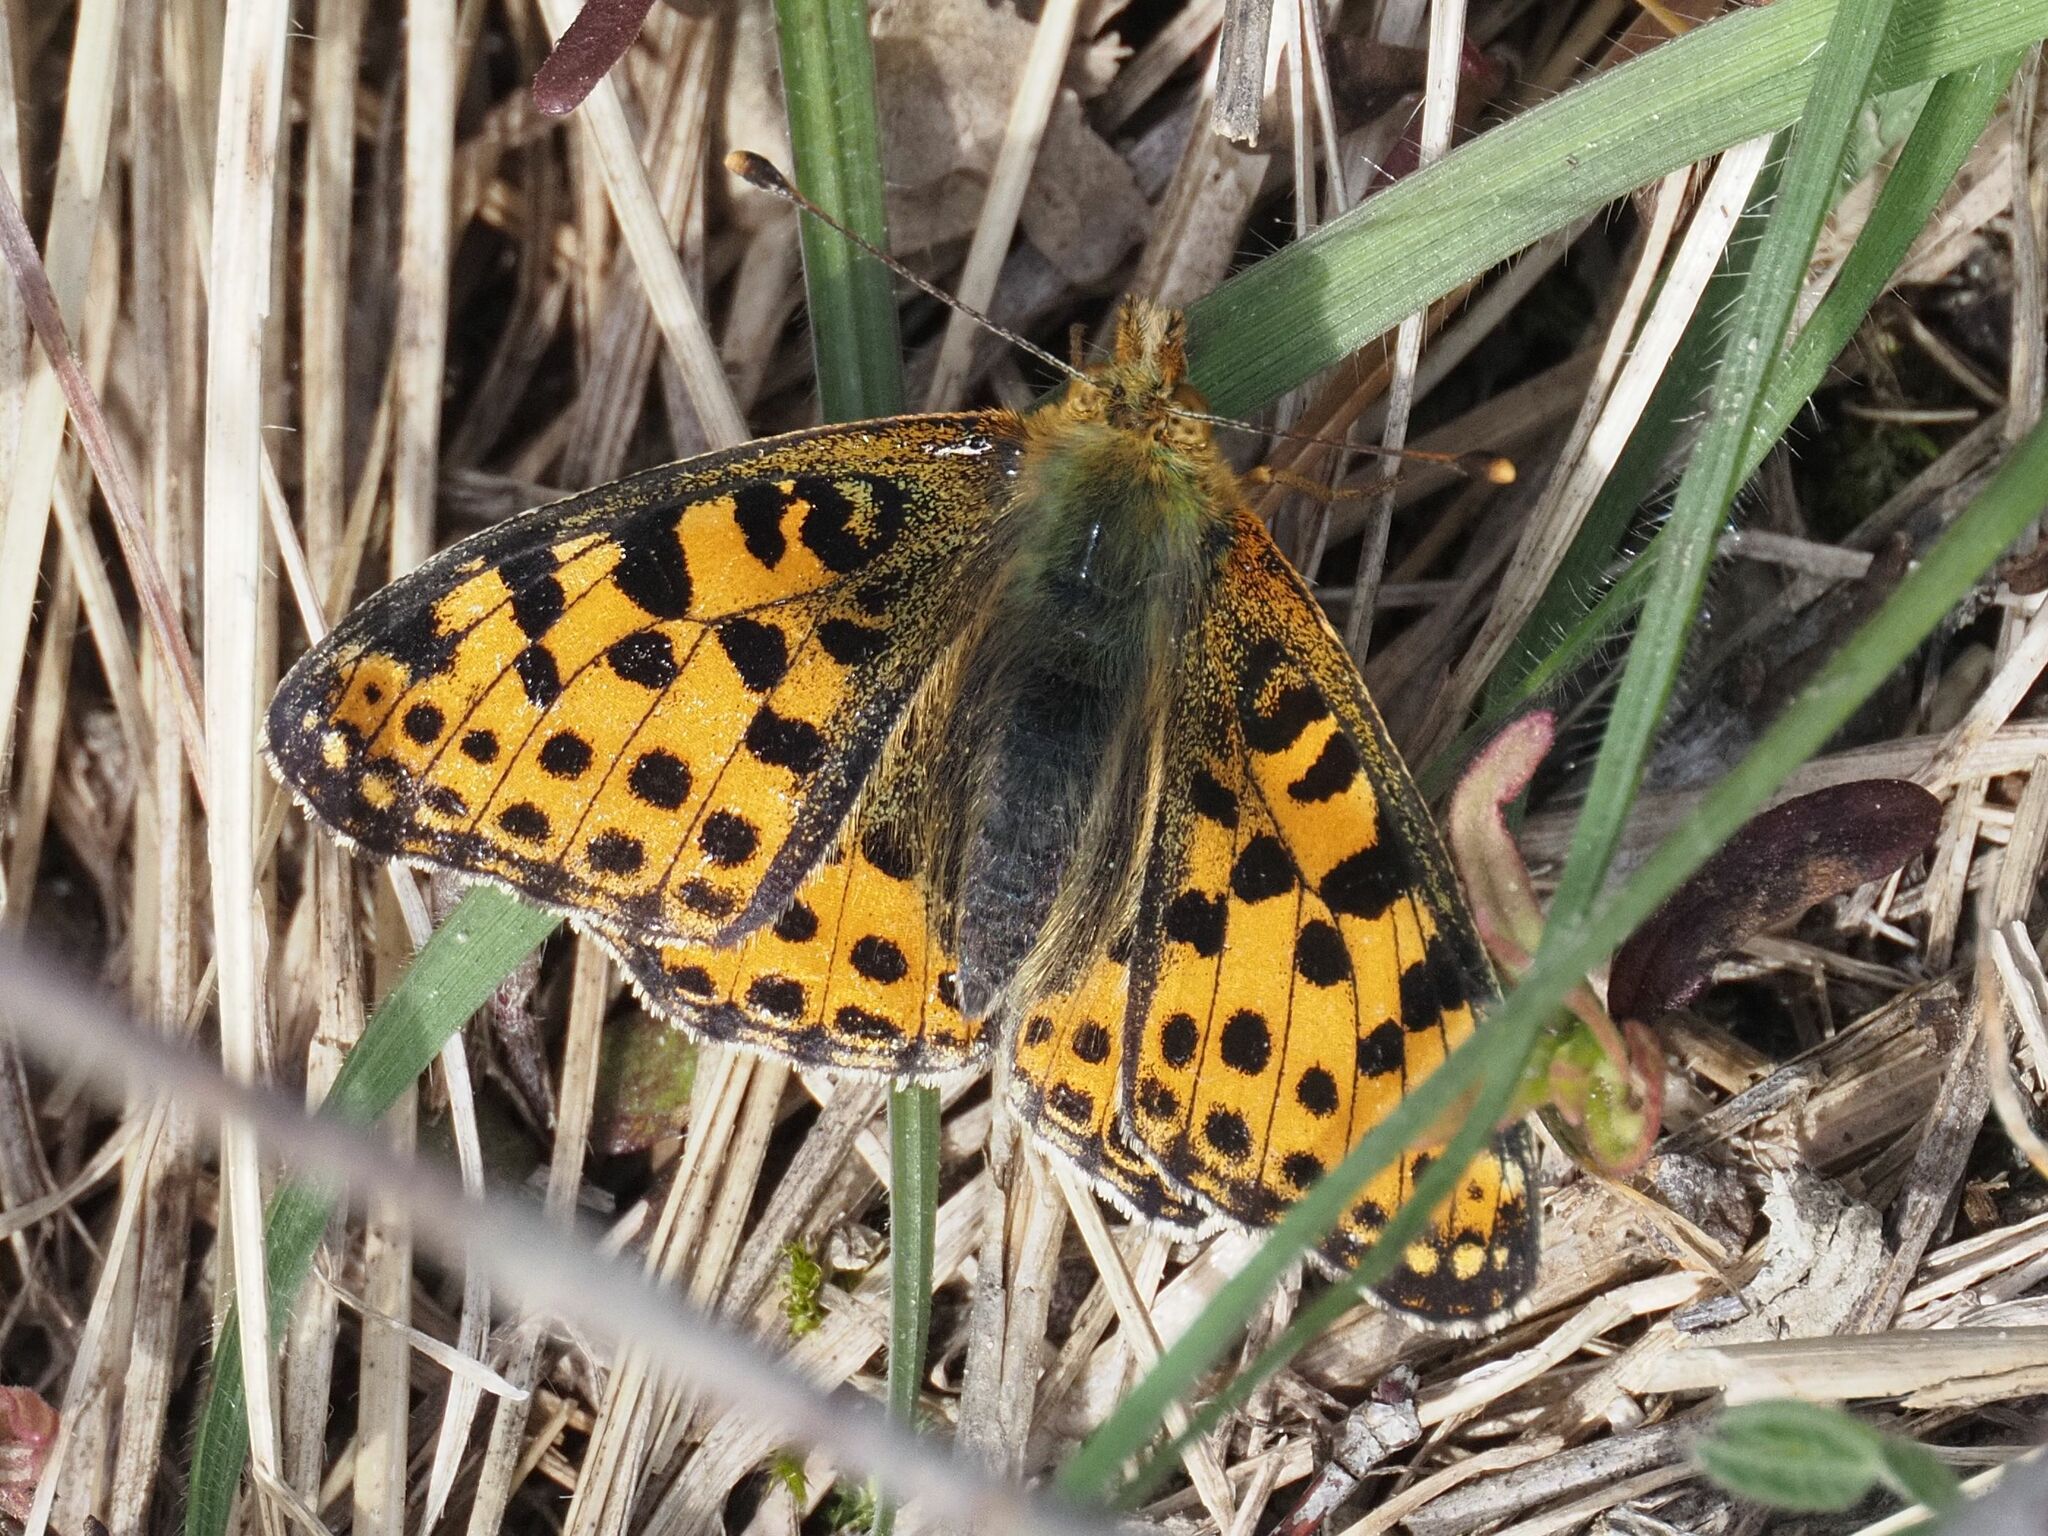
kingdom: Animalia
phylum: Arthropoda
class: Insecta
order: Lepidoptera
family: Nymphalidae
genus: Issoria
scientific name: Issoria lathonia
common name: Queen of spain fritillary
